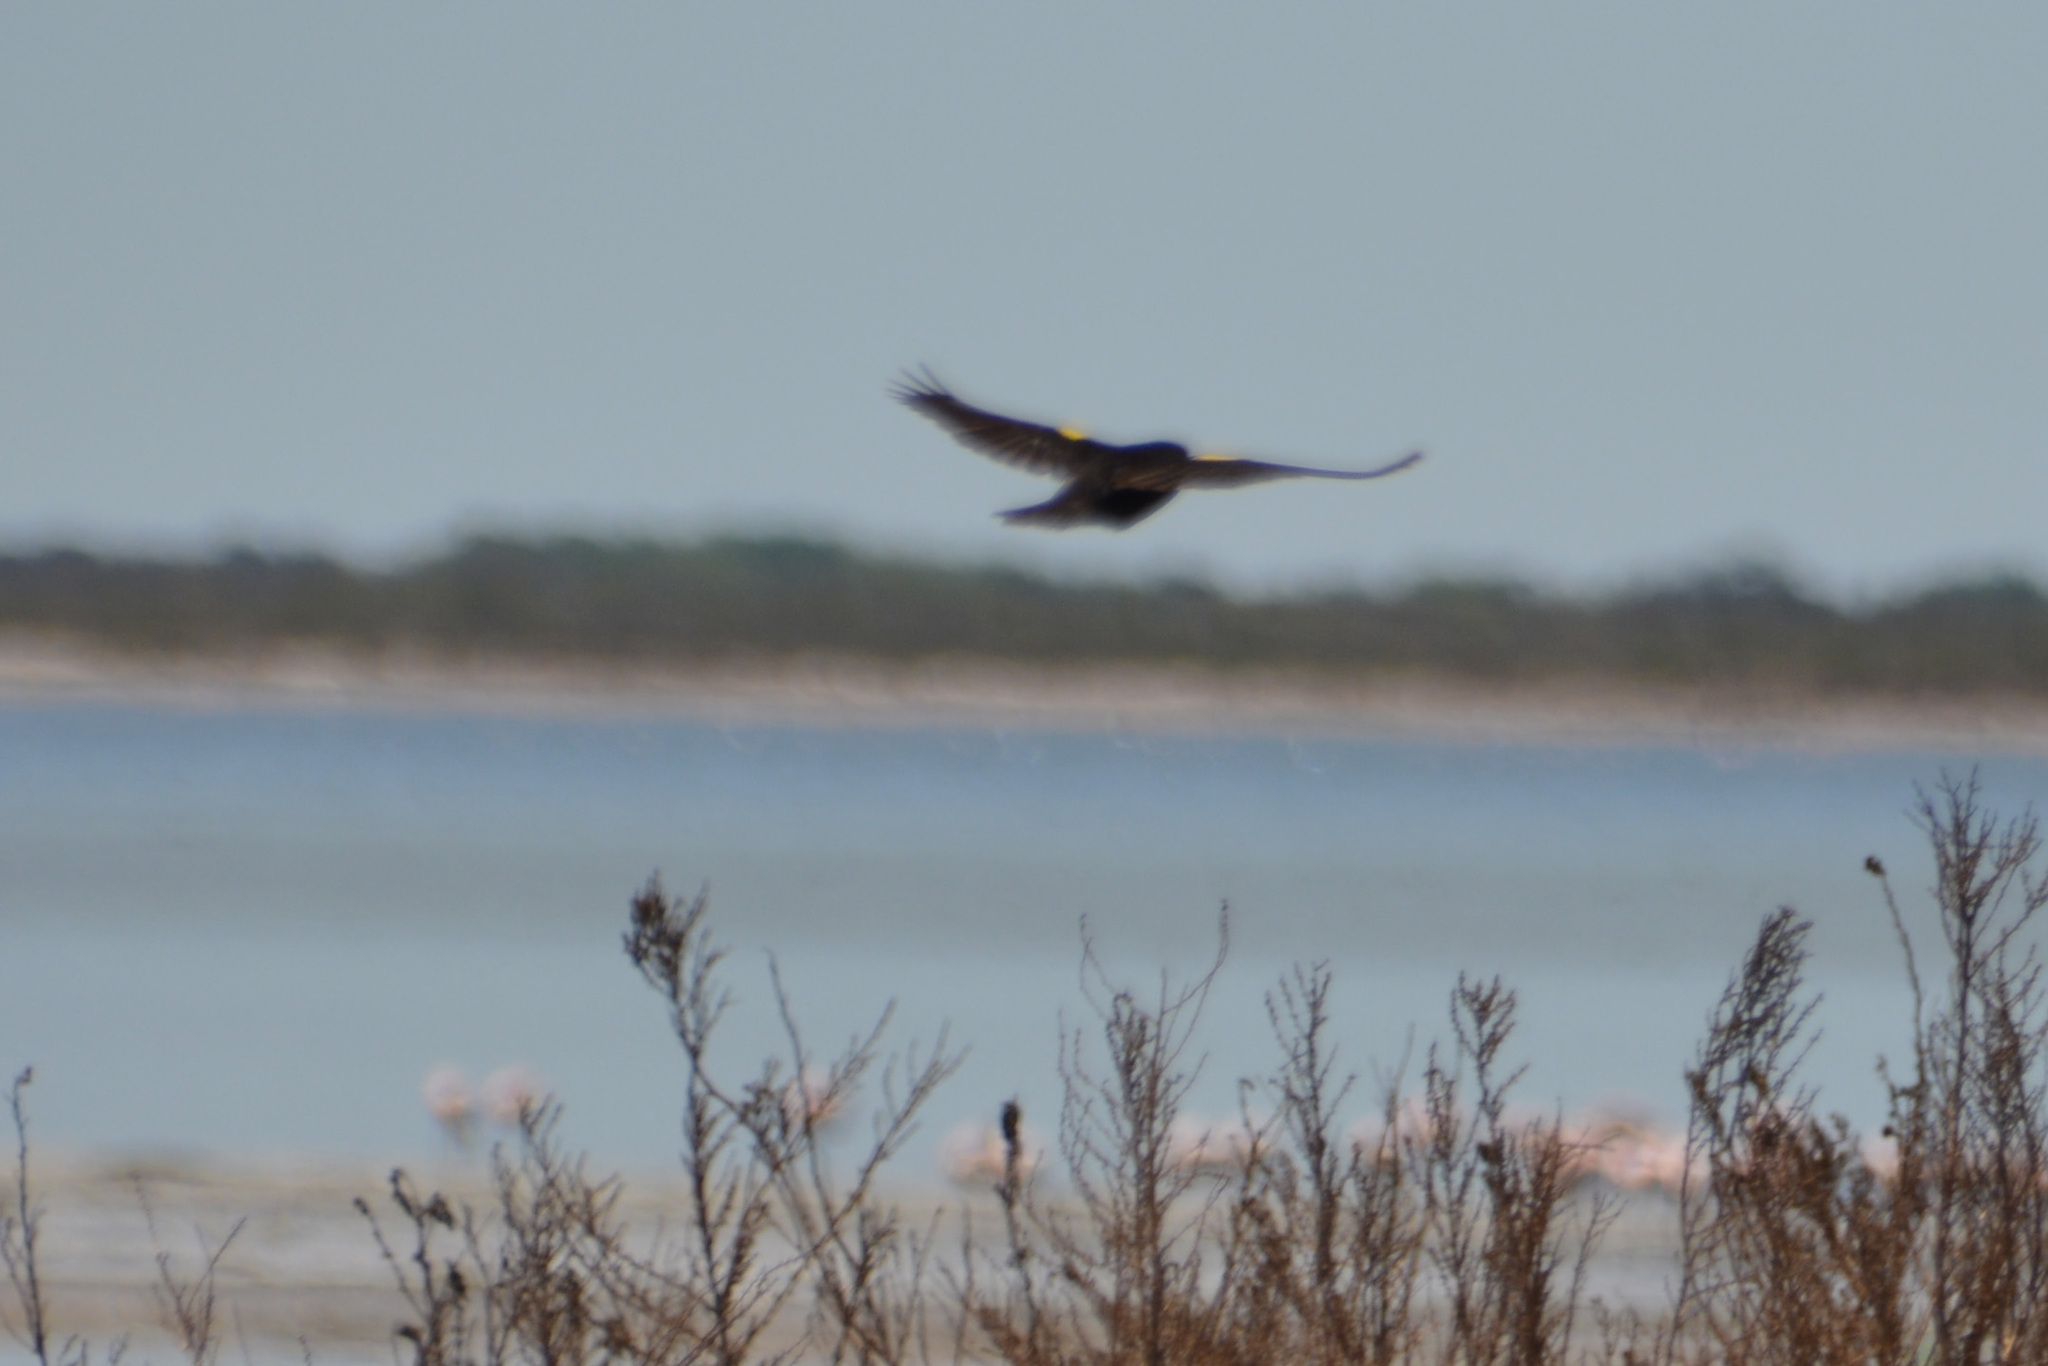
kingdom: Animalia
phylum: Chordata
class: Aves
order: Passeriformes
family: Icteridae
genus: Agelasticus
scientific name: Agelasticus thilius
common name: Yellow-winged blackbird
